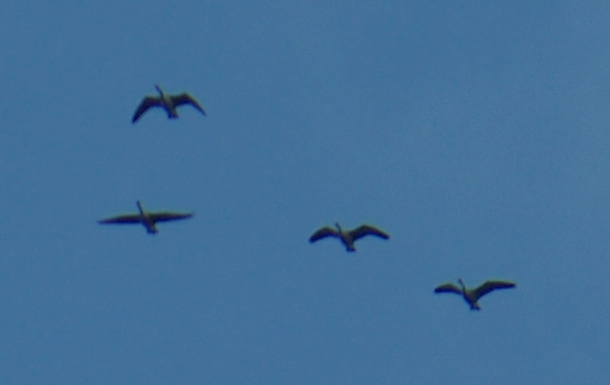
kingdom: Animalia
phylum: Chordata
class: Aves
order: Anseriformes
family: Anatidae
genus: Branta
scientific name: Branta canadensis
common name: Canada goose
